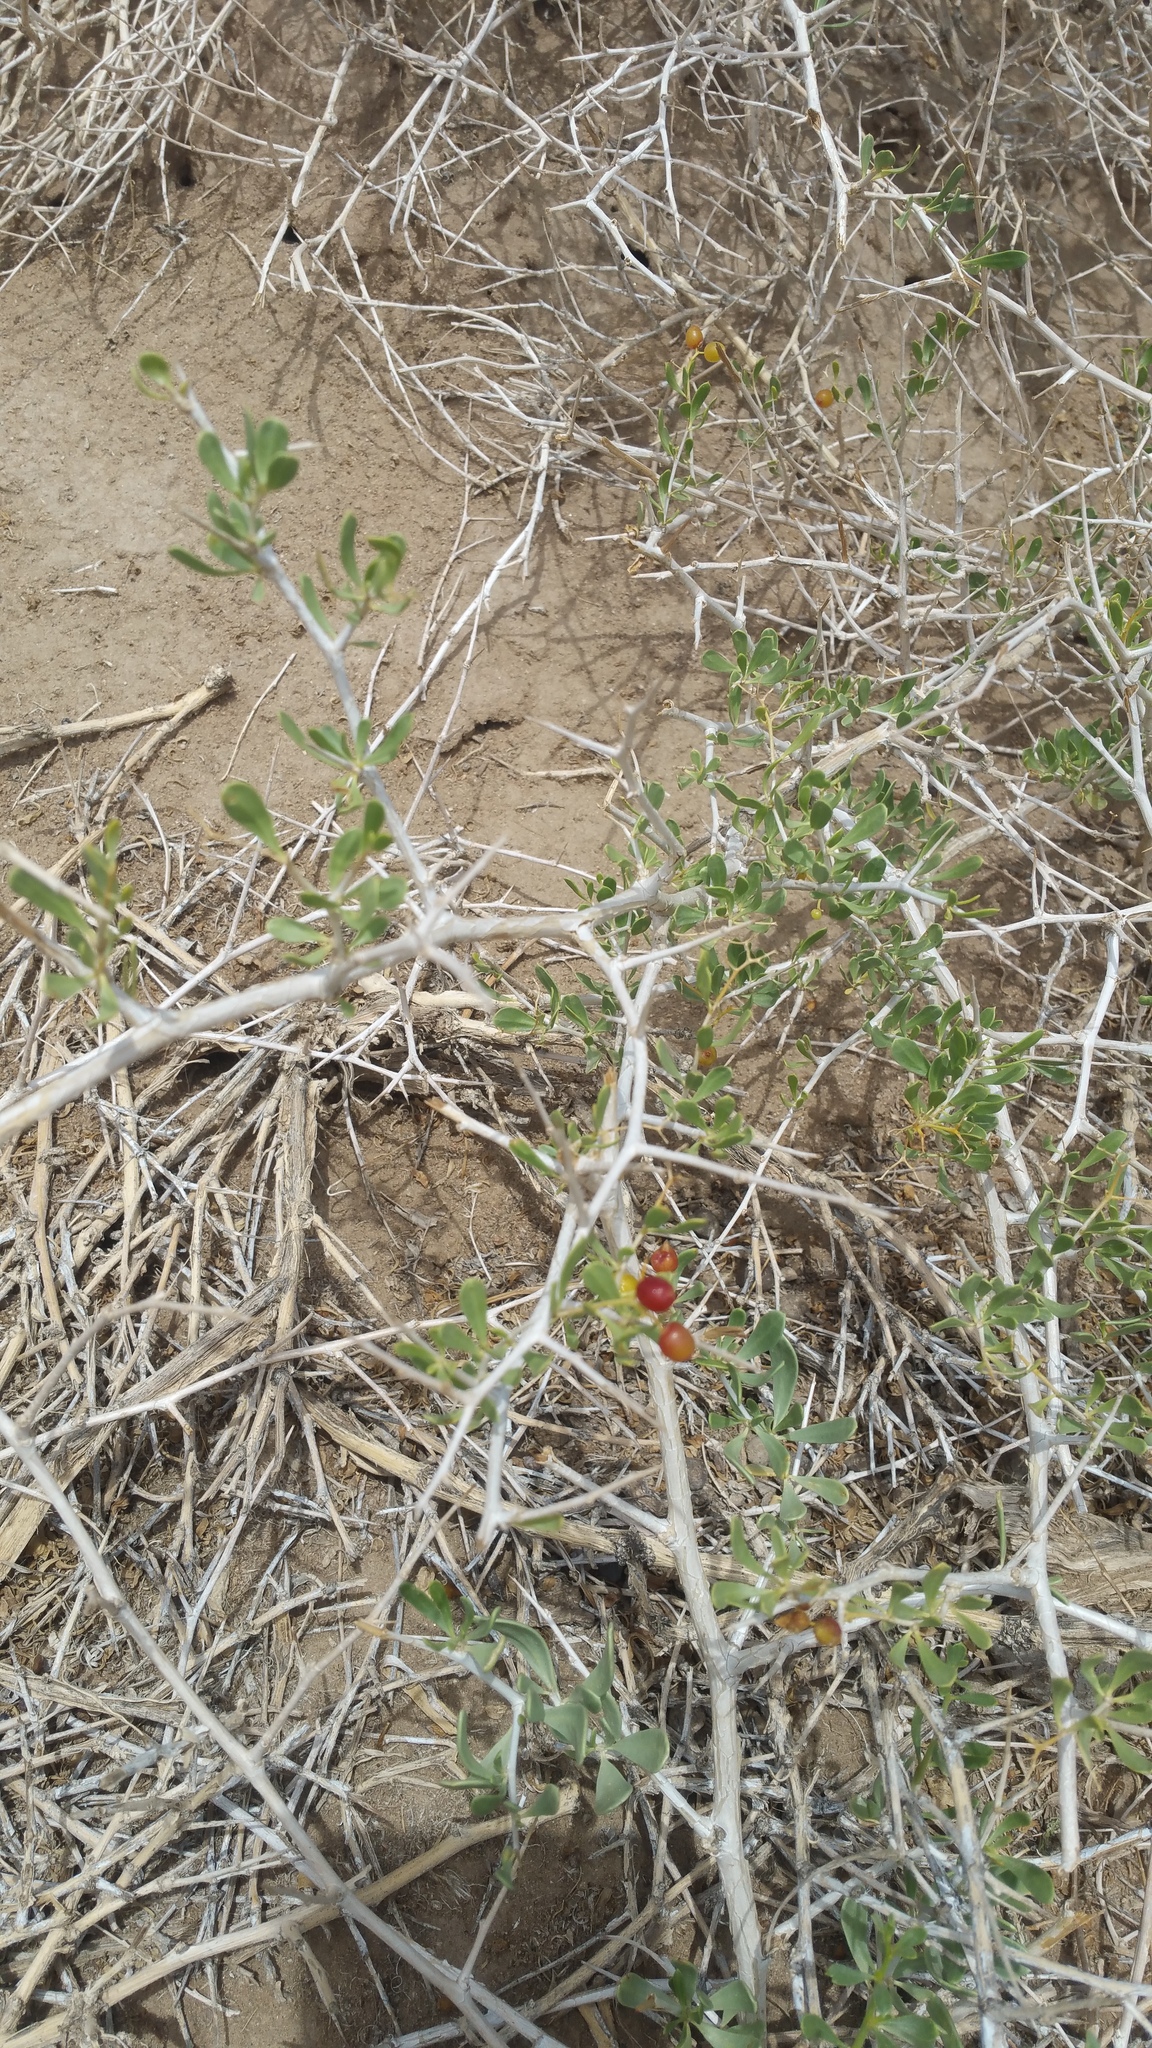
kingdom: Plantae
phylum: Tracheophyta
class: Magnoliopsida
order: Sapindales
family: Nitrariaceae
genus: Nitraria
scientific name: Nitraria sibirica
